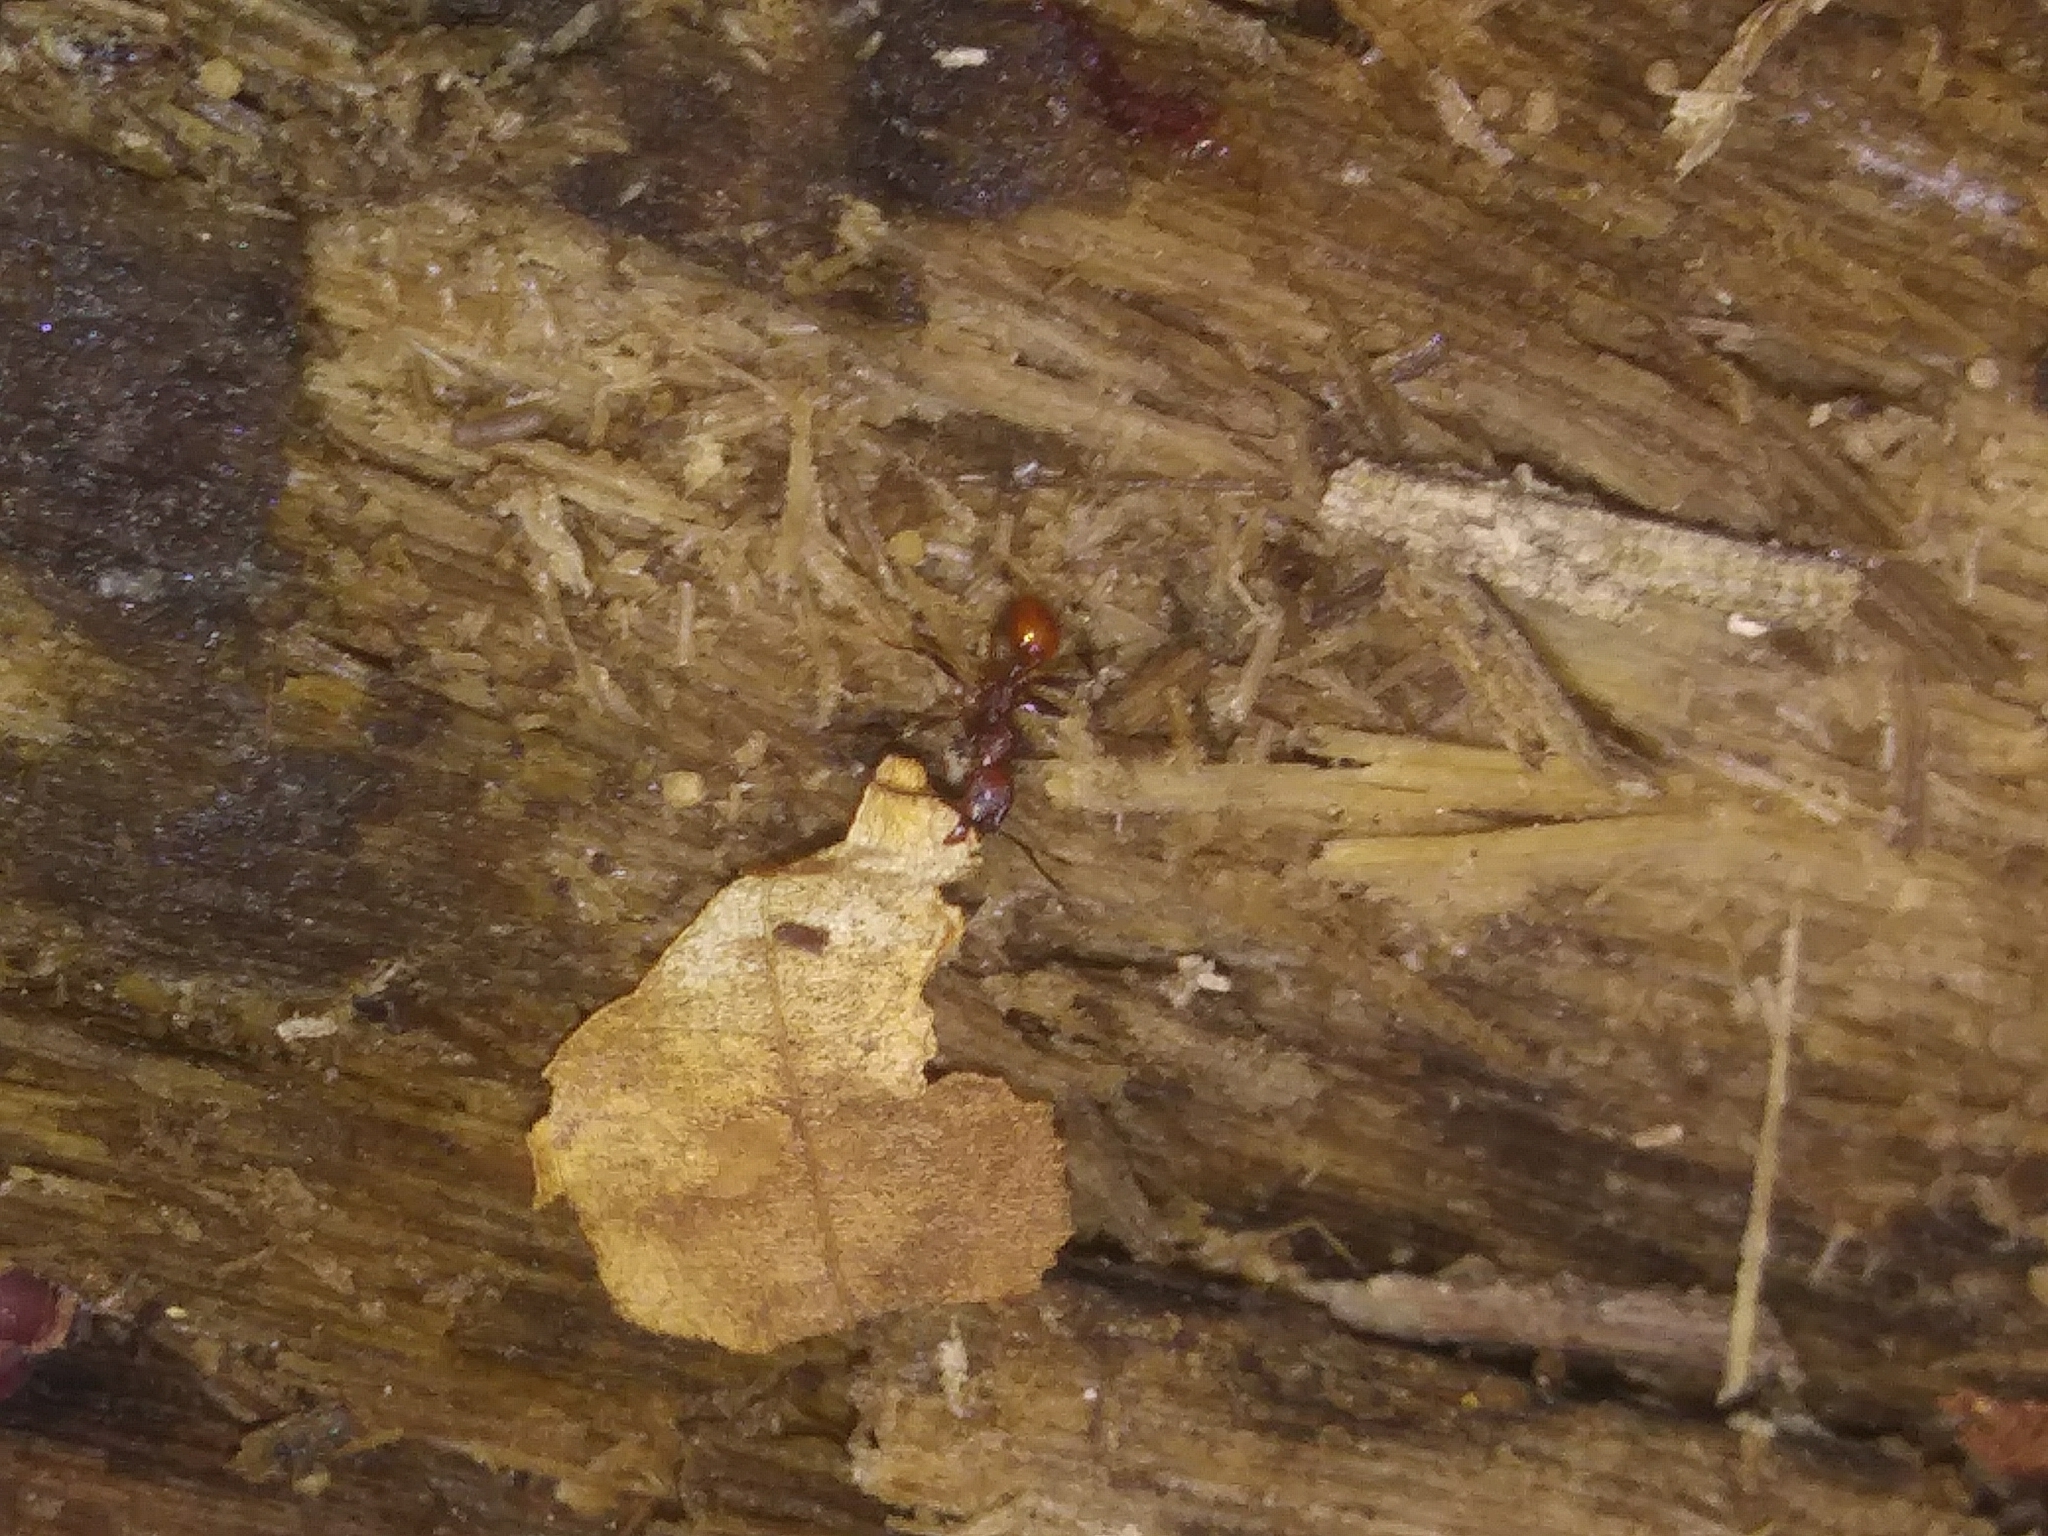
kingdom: Animalia
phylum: Arthropoda
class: Insecta
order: Hymenoptera
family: Formicidae
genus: Aphaenogaster
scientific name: Aphaenogaster tennesseensis
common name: Tennessee thread-waisted ant
